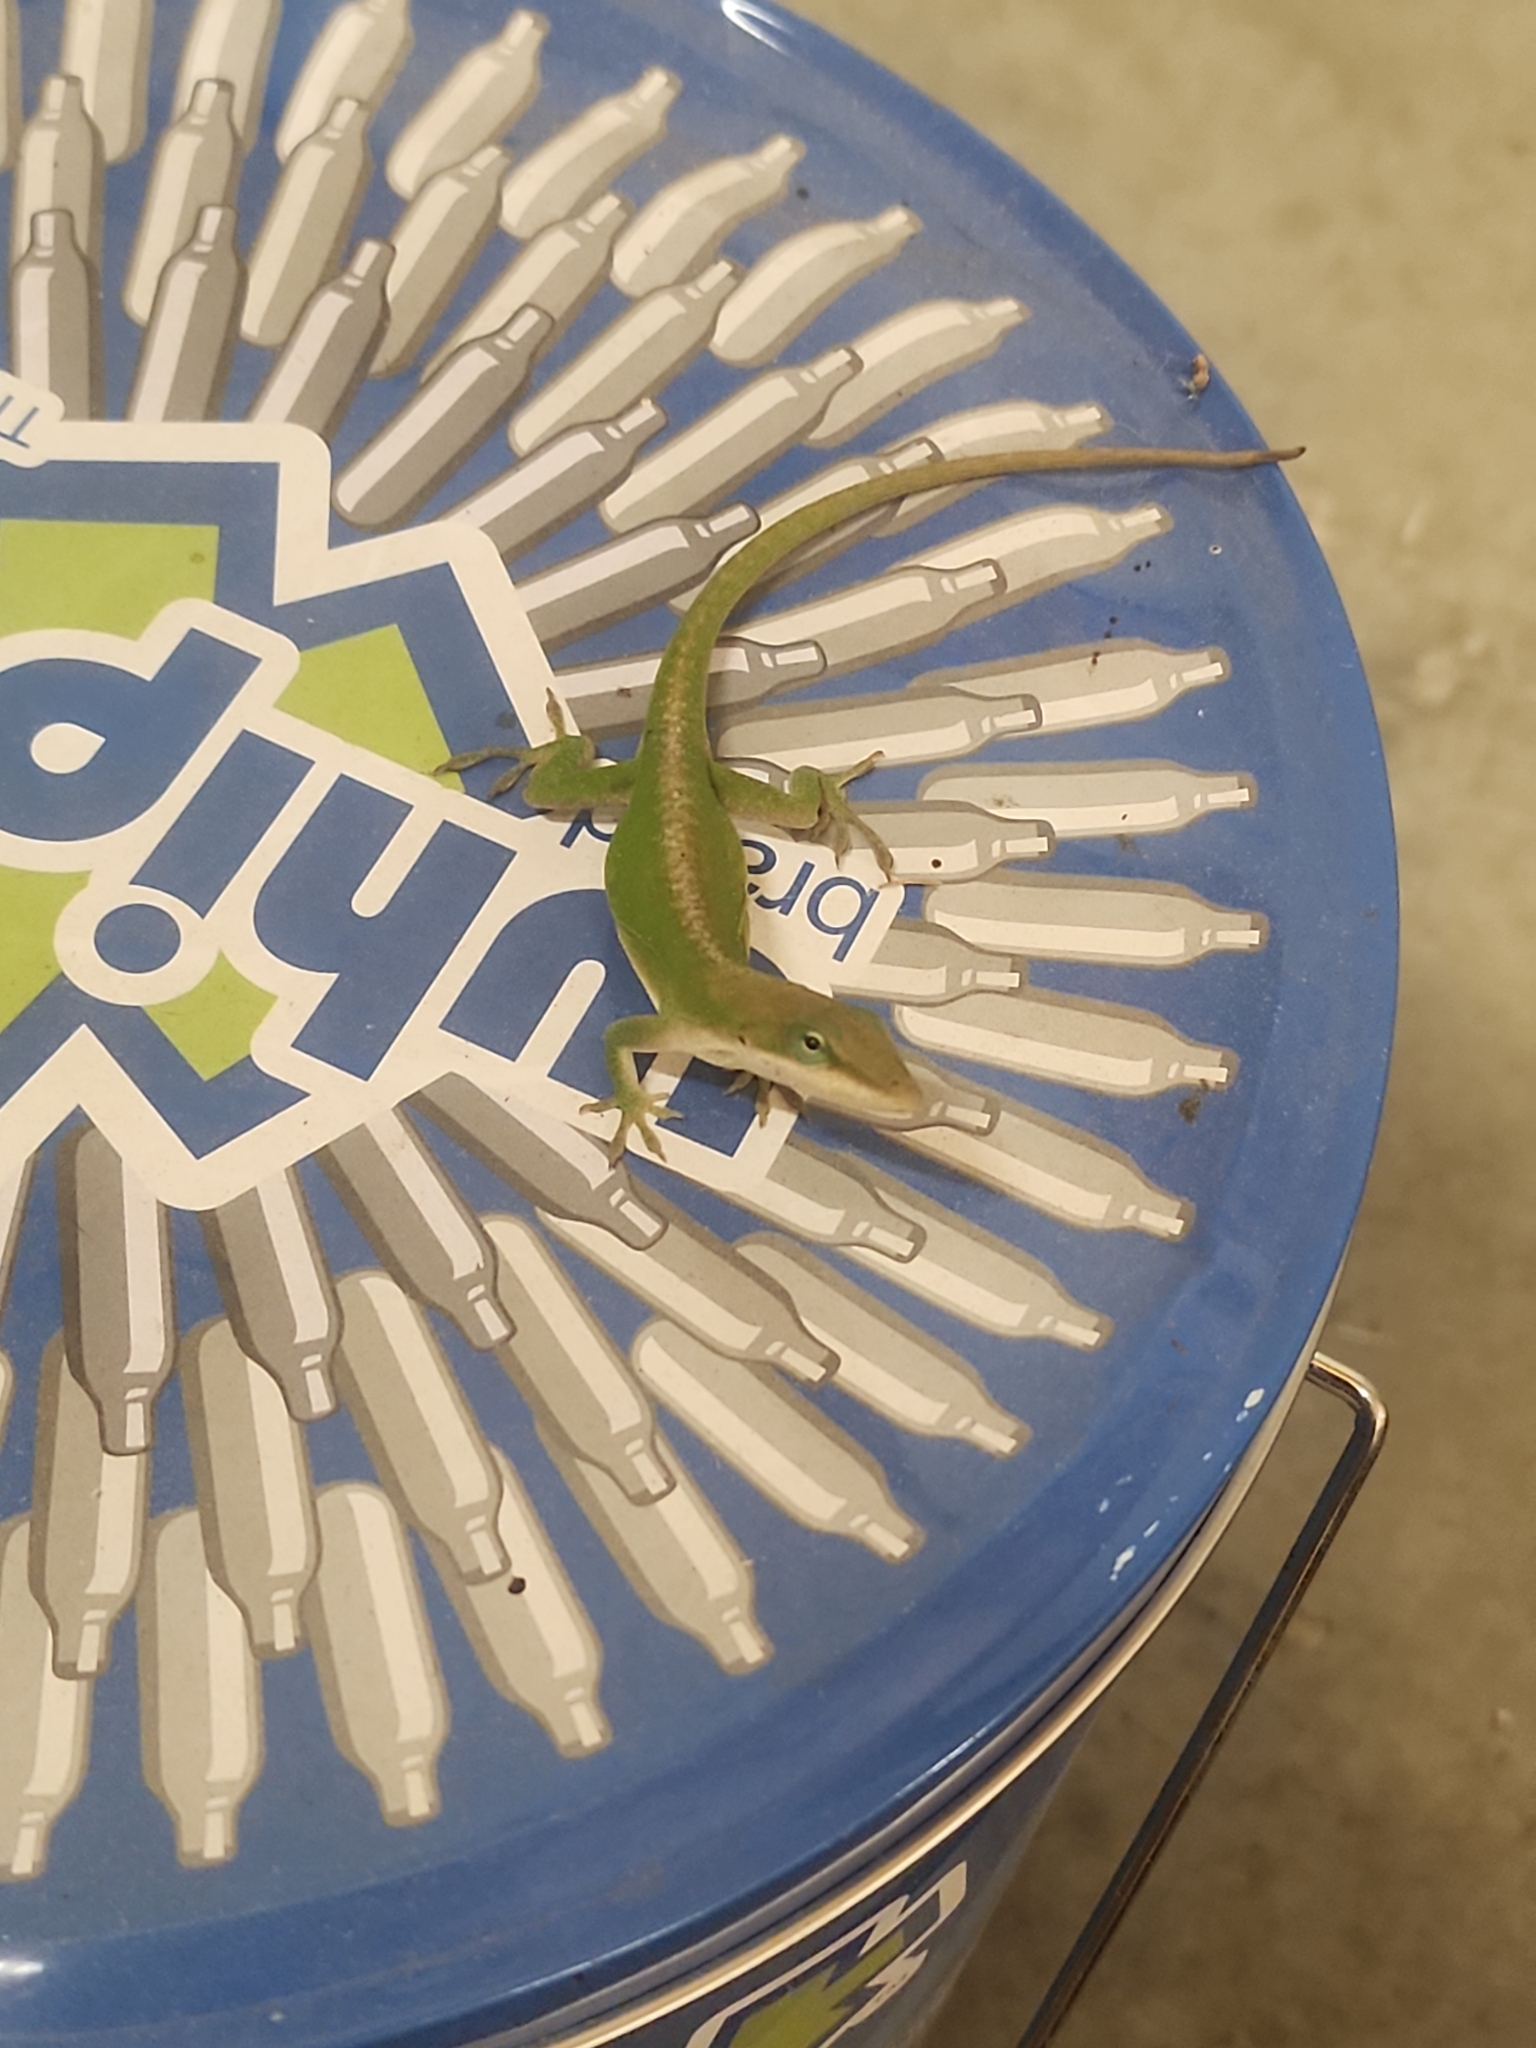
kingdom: Animalia
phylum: Chordata
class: Squamata
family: Dactyloidae
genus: Anolis
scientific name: Anolis carolinensis
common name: Green anole
